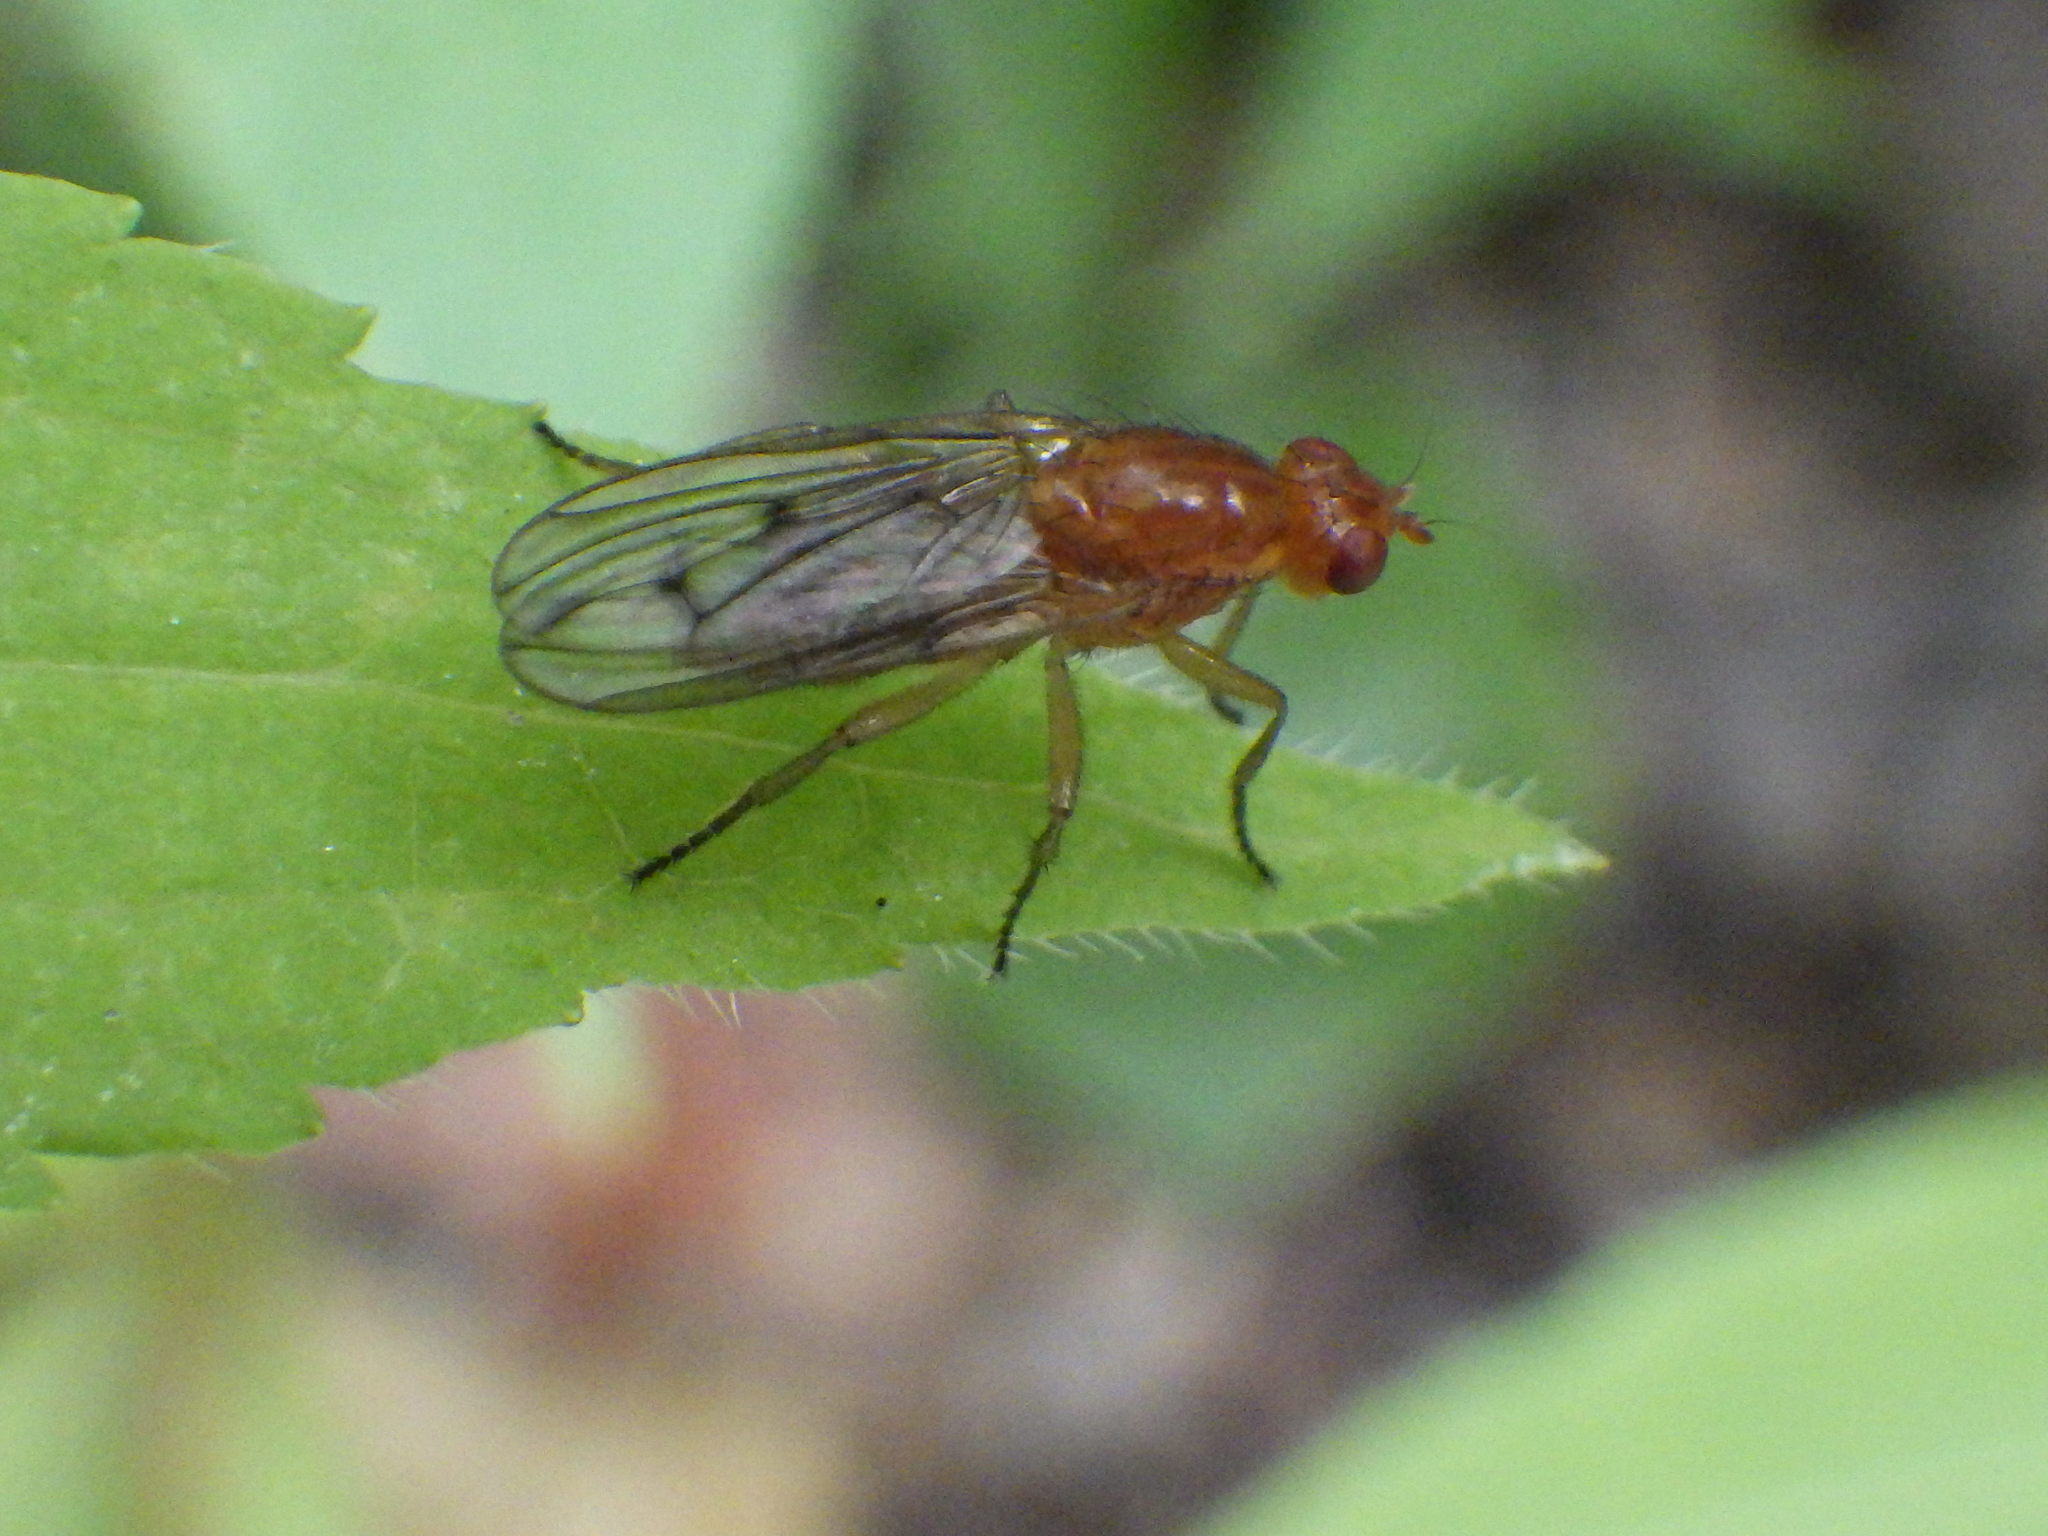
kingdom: Animalia
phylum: Arthropoda
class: Insecta
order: Diptera
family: Dryomyzidae
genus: Dryomyza
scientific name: Dryomyza anilis
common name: Marsh fly
